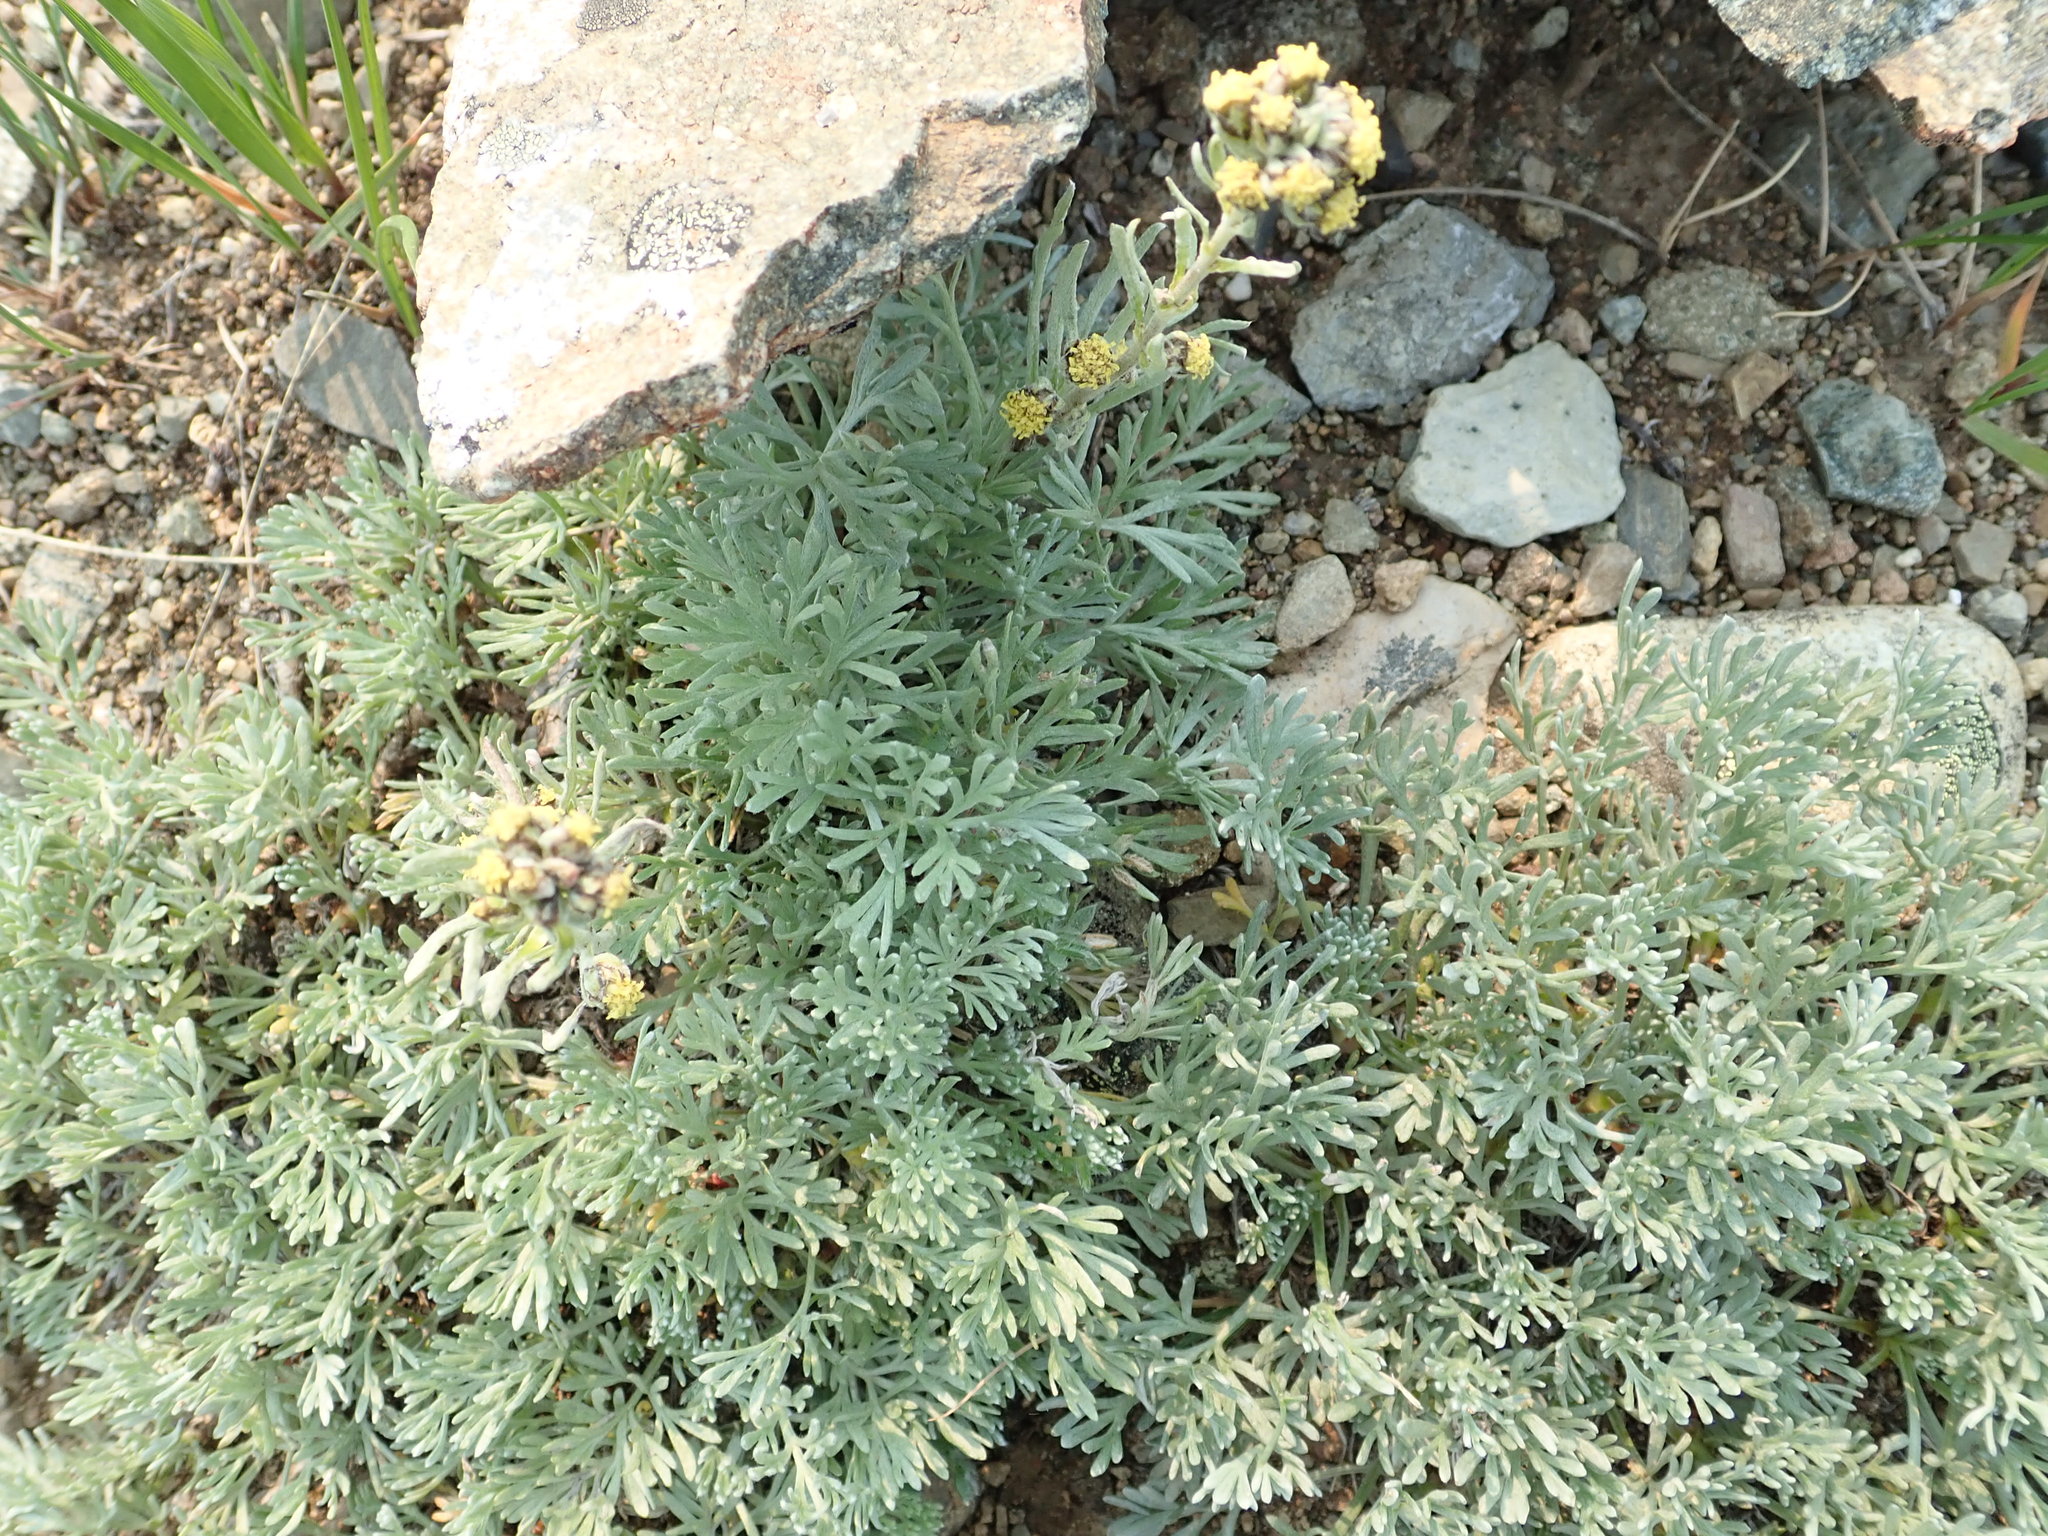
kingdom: Plantae
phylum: Tracheophyta
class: Magnoliopsida
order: Asterales
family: Asteraceae
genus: Artemisia
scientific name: Artemisia furcata
